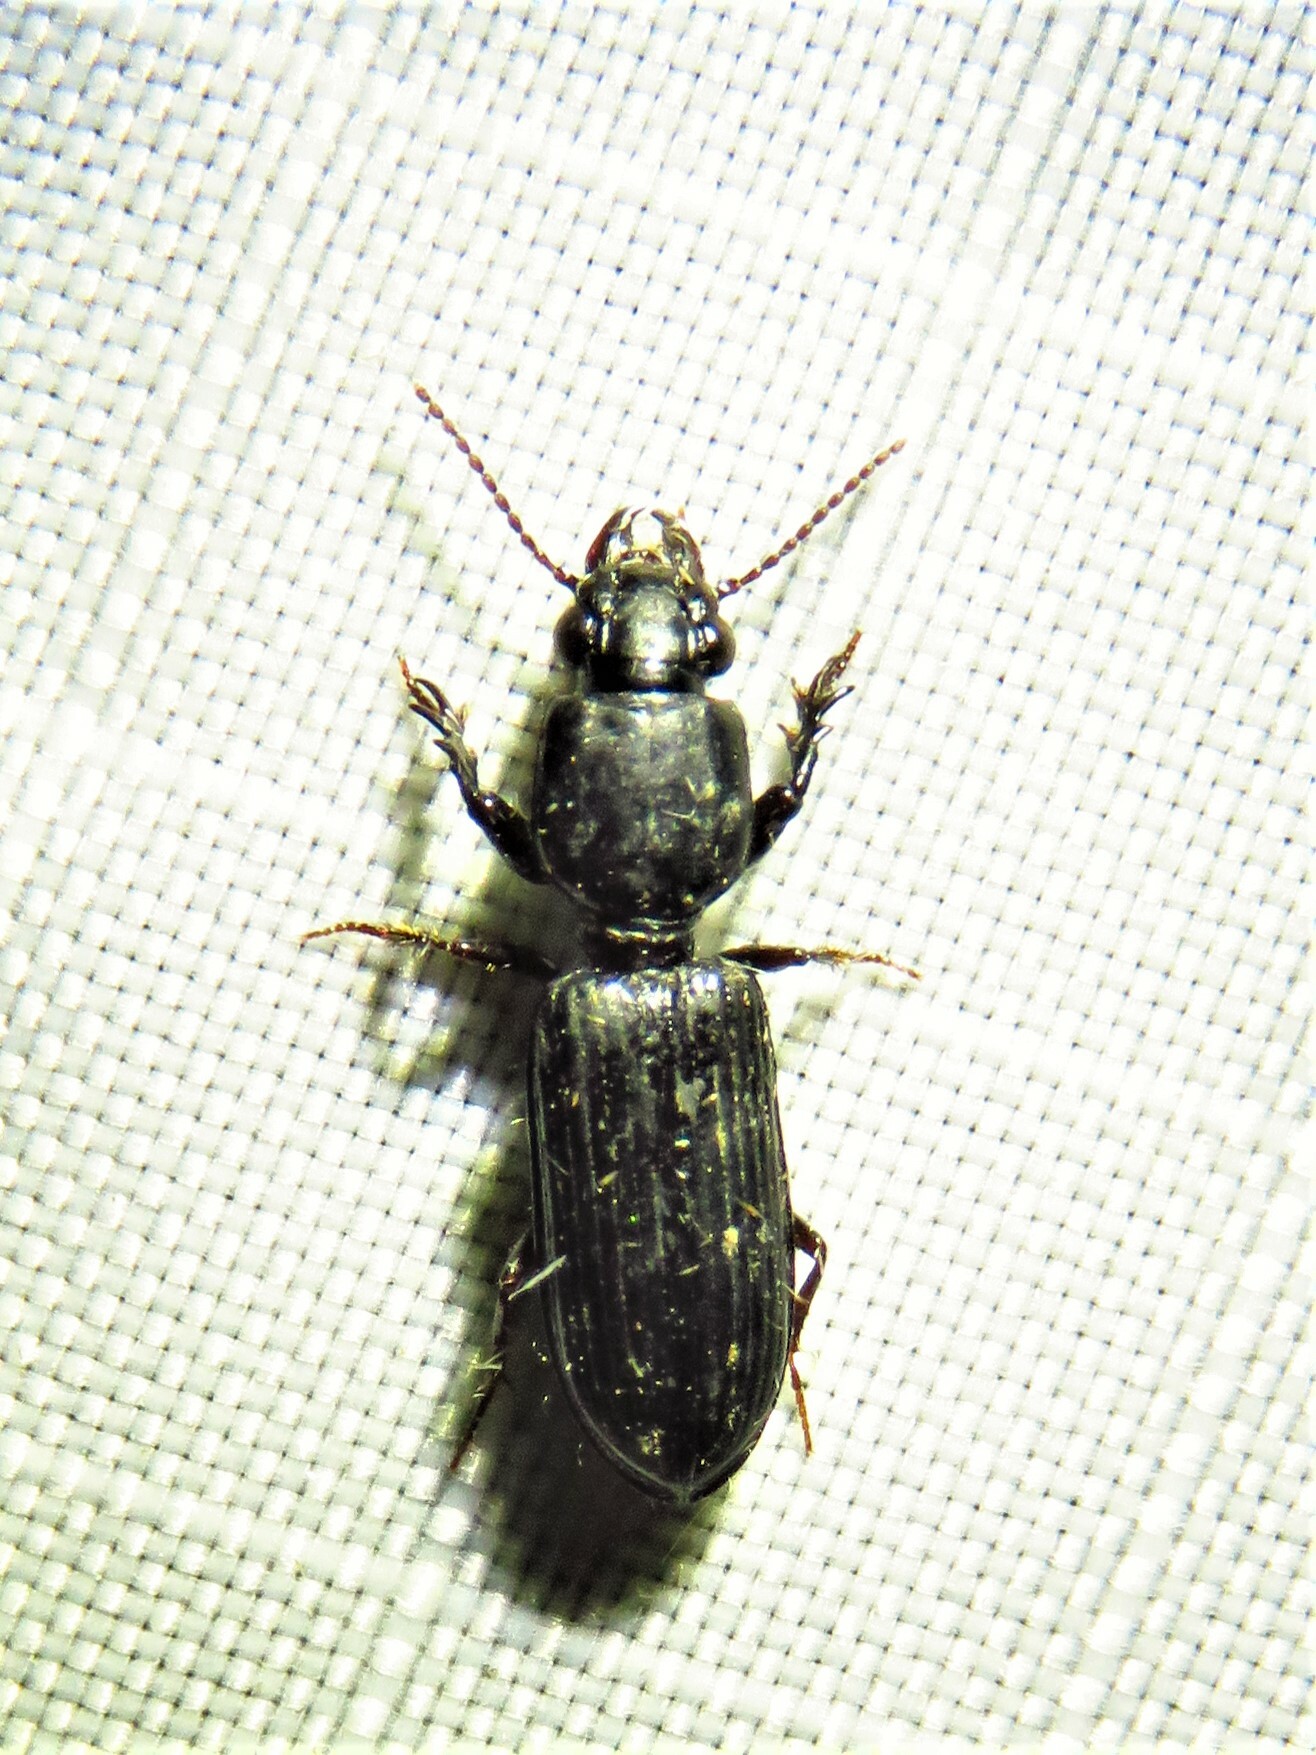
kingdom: Animalia
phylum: Arthropoda
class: Insecta
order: Coleoptera
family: Carabidae
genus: Semiclivina
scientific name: Semiclivina dentipes
